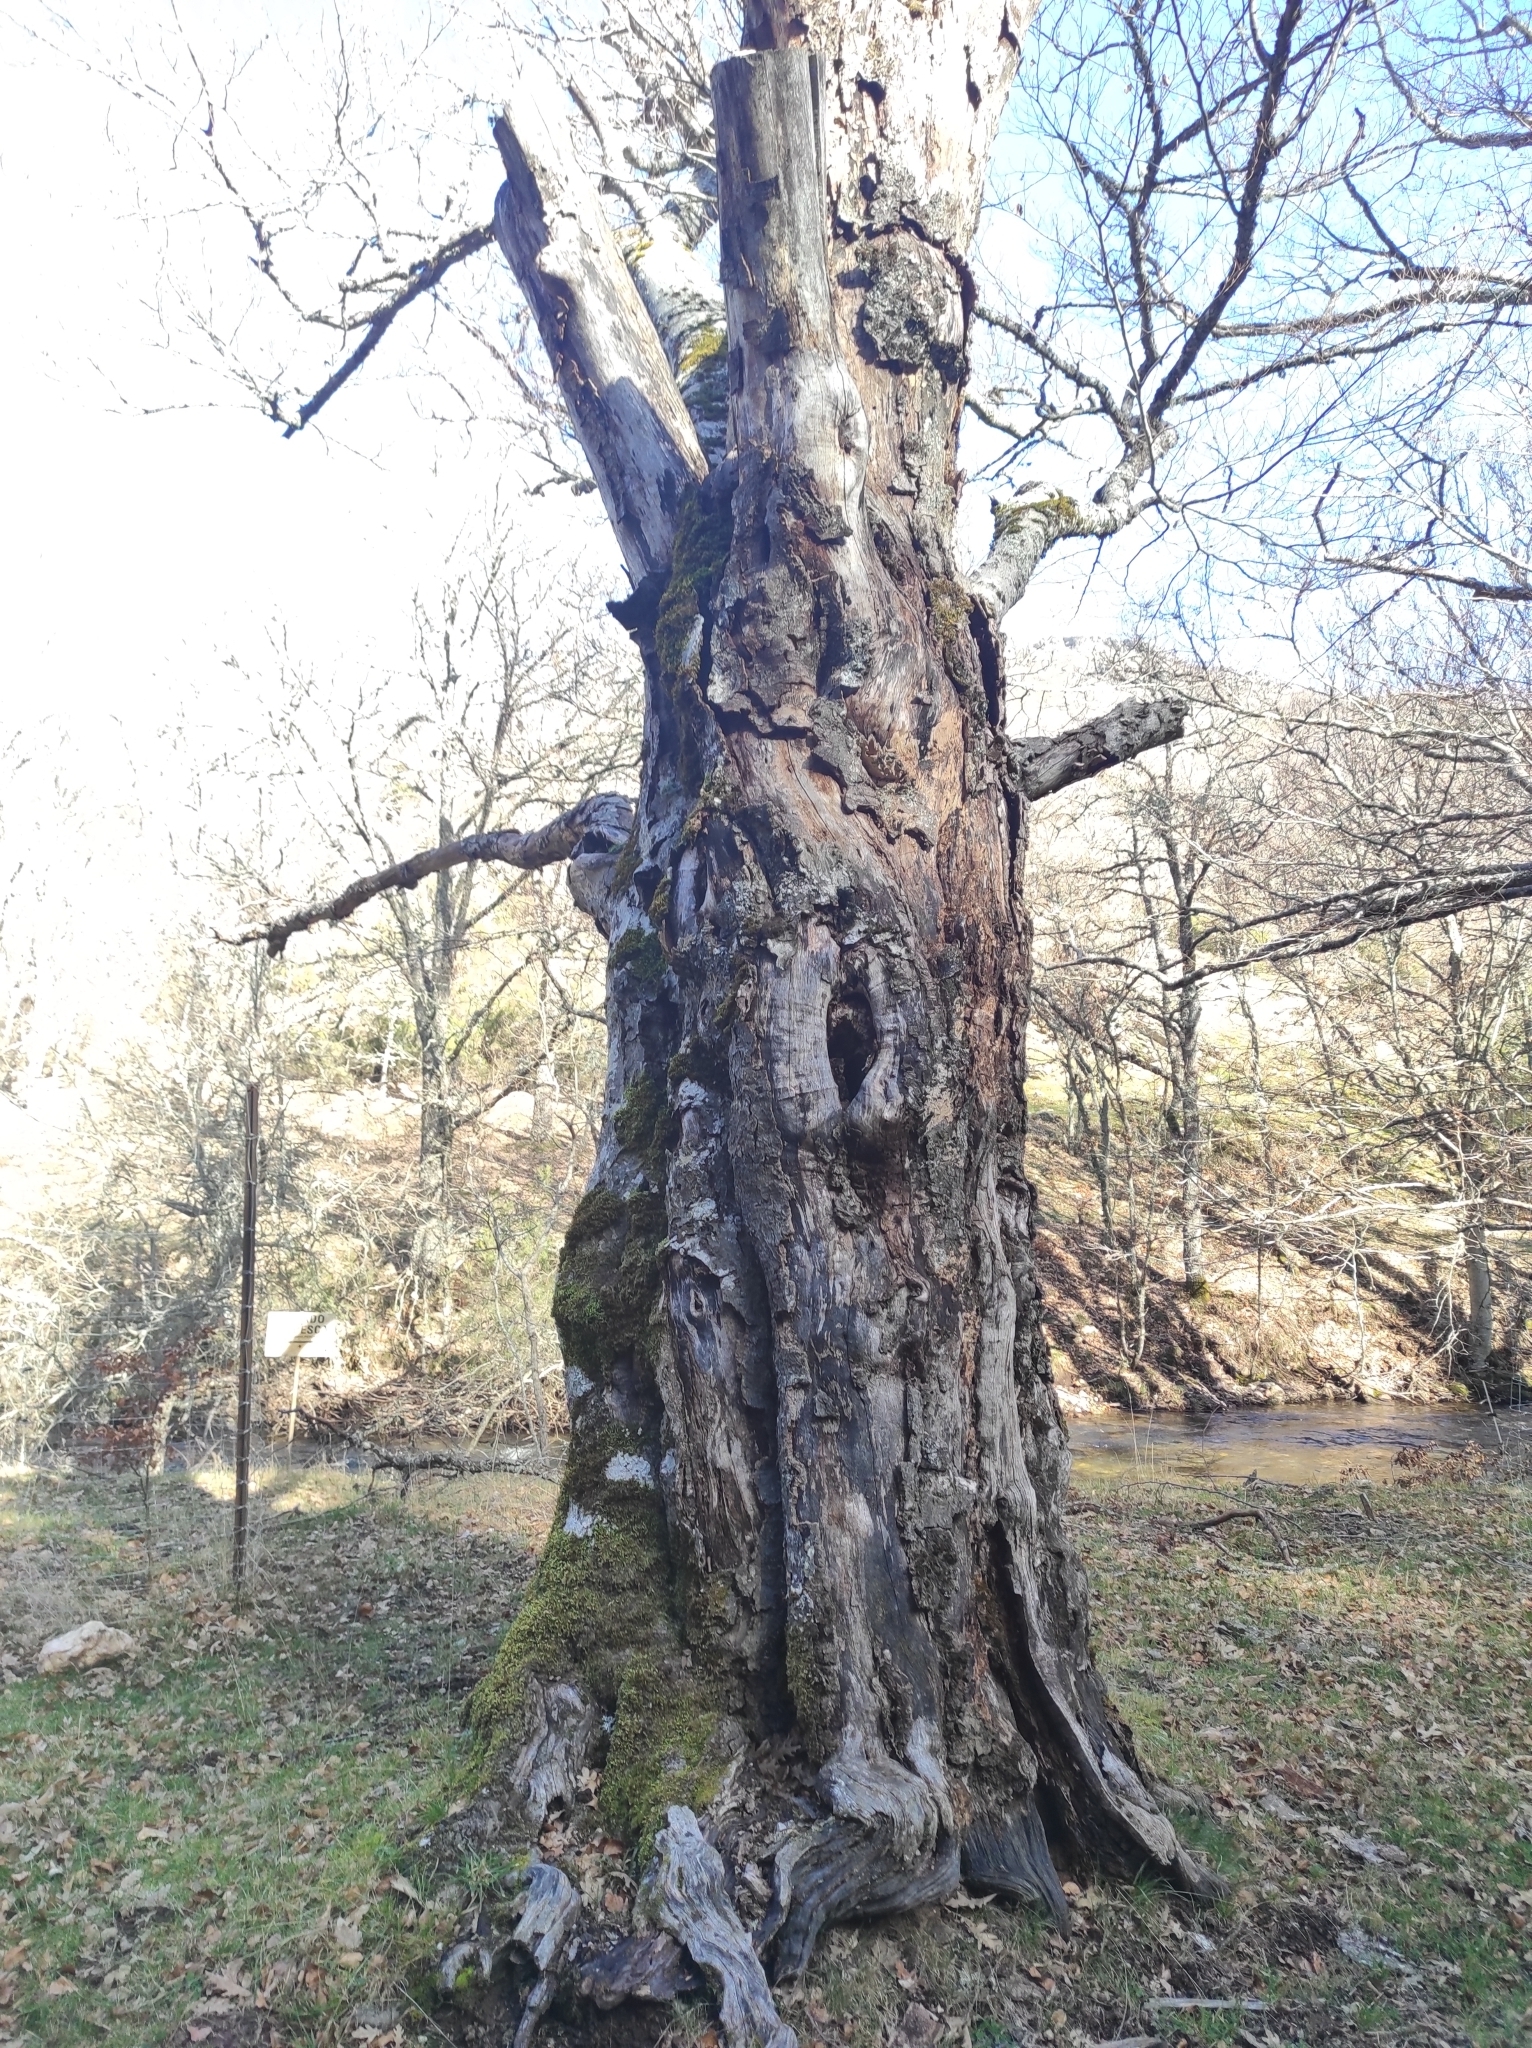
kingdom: Plantae
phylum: Tracheophyta
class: Magnoliopsida
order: Fagales
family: Fagaceae
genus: Fagus
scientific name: Fagus sylvatica
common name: Beech
